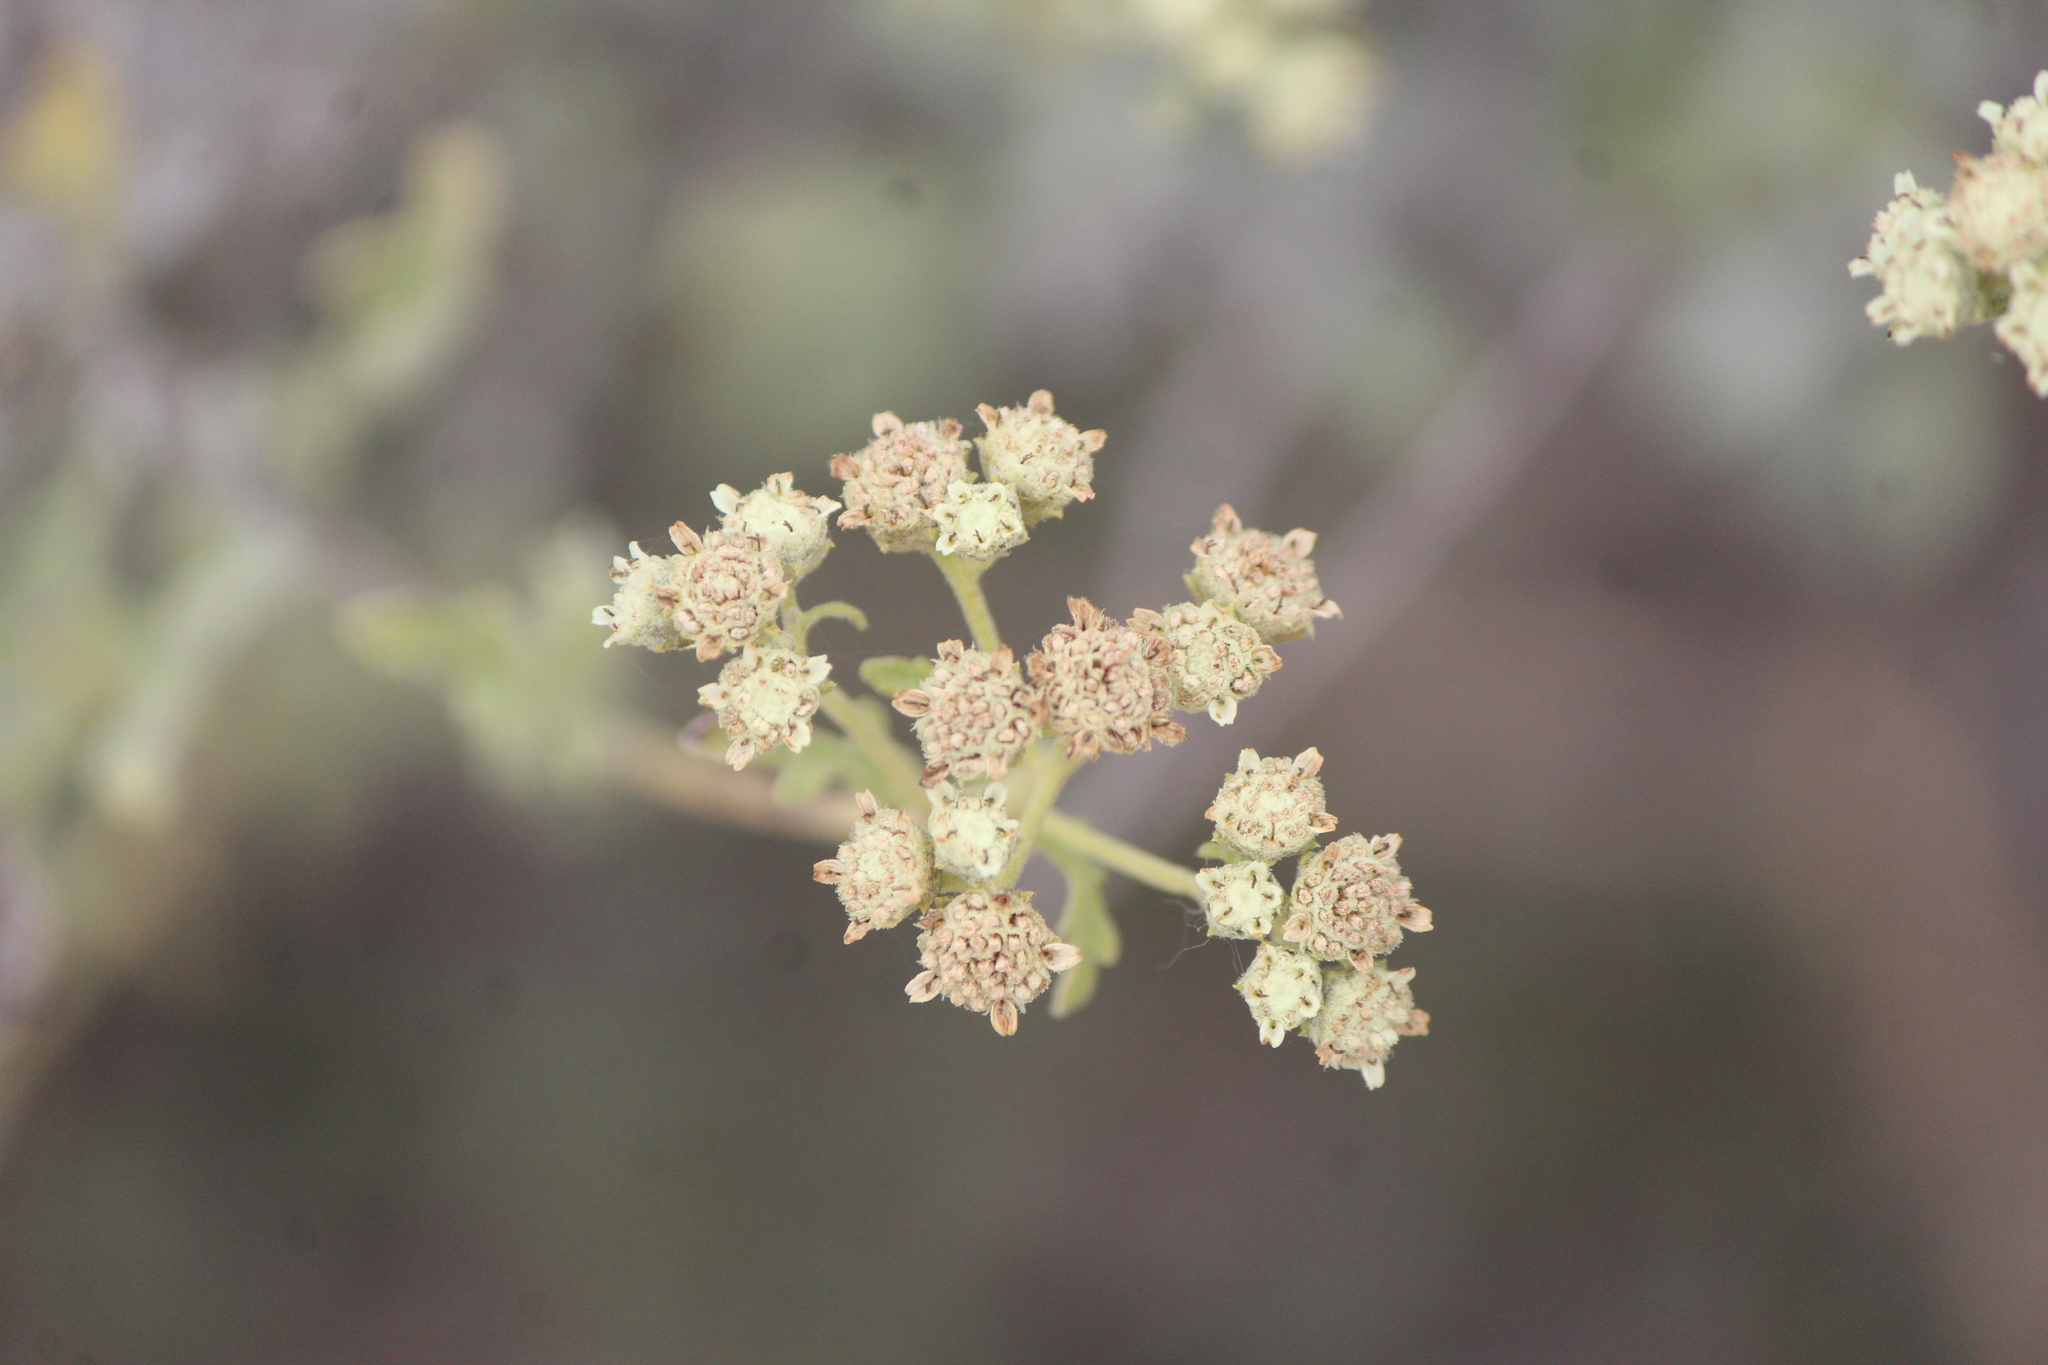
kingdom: Plantae
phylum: Tracheophyta
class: Magnoliopsida
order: Asterales
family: Asteraceae
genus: Parthenium
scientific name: Parthenium incanum
